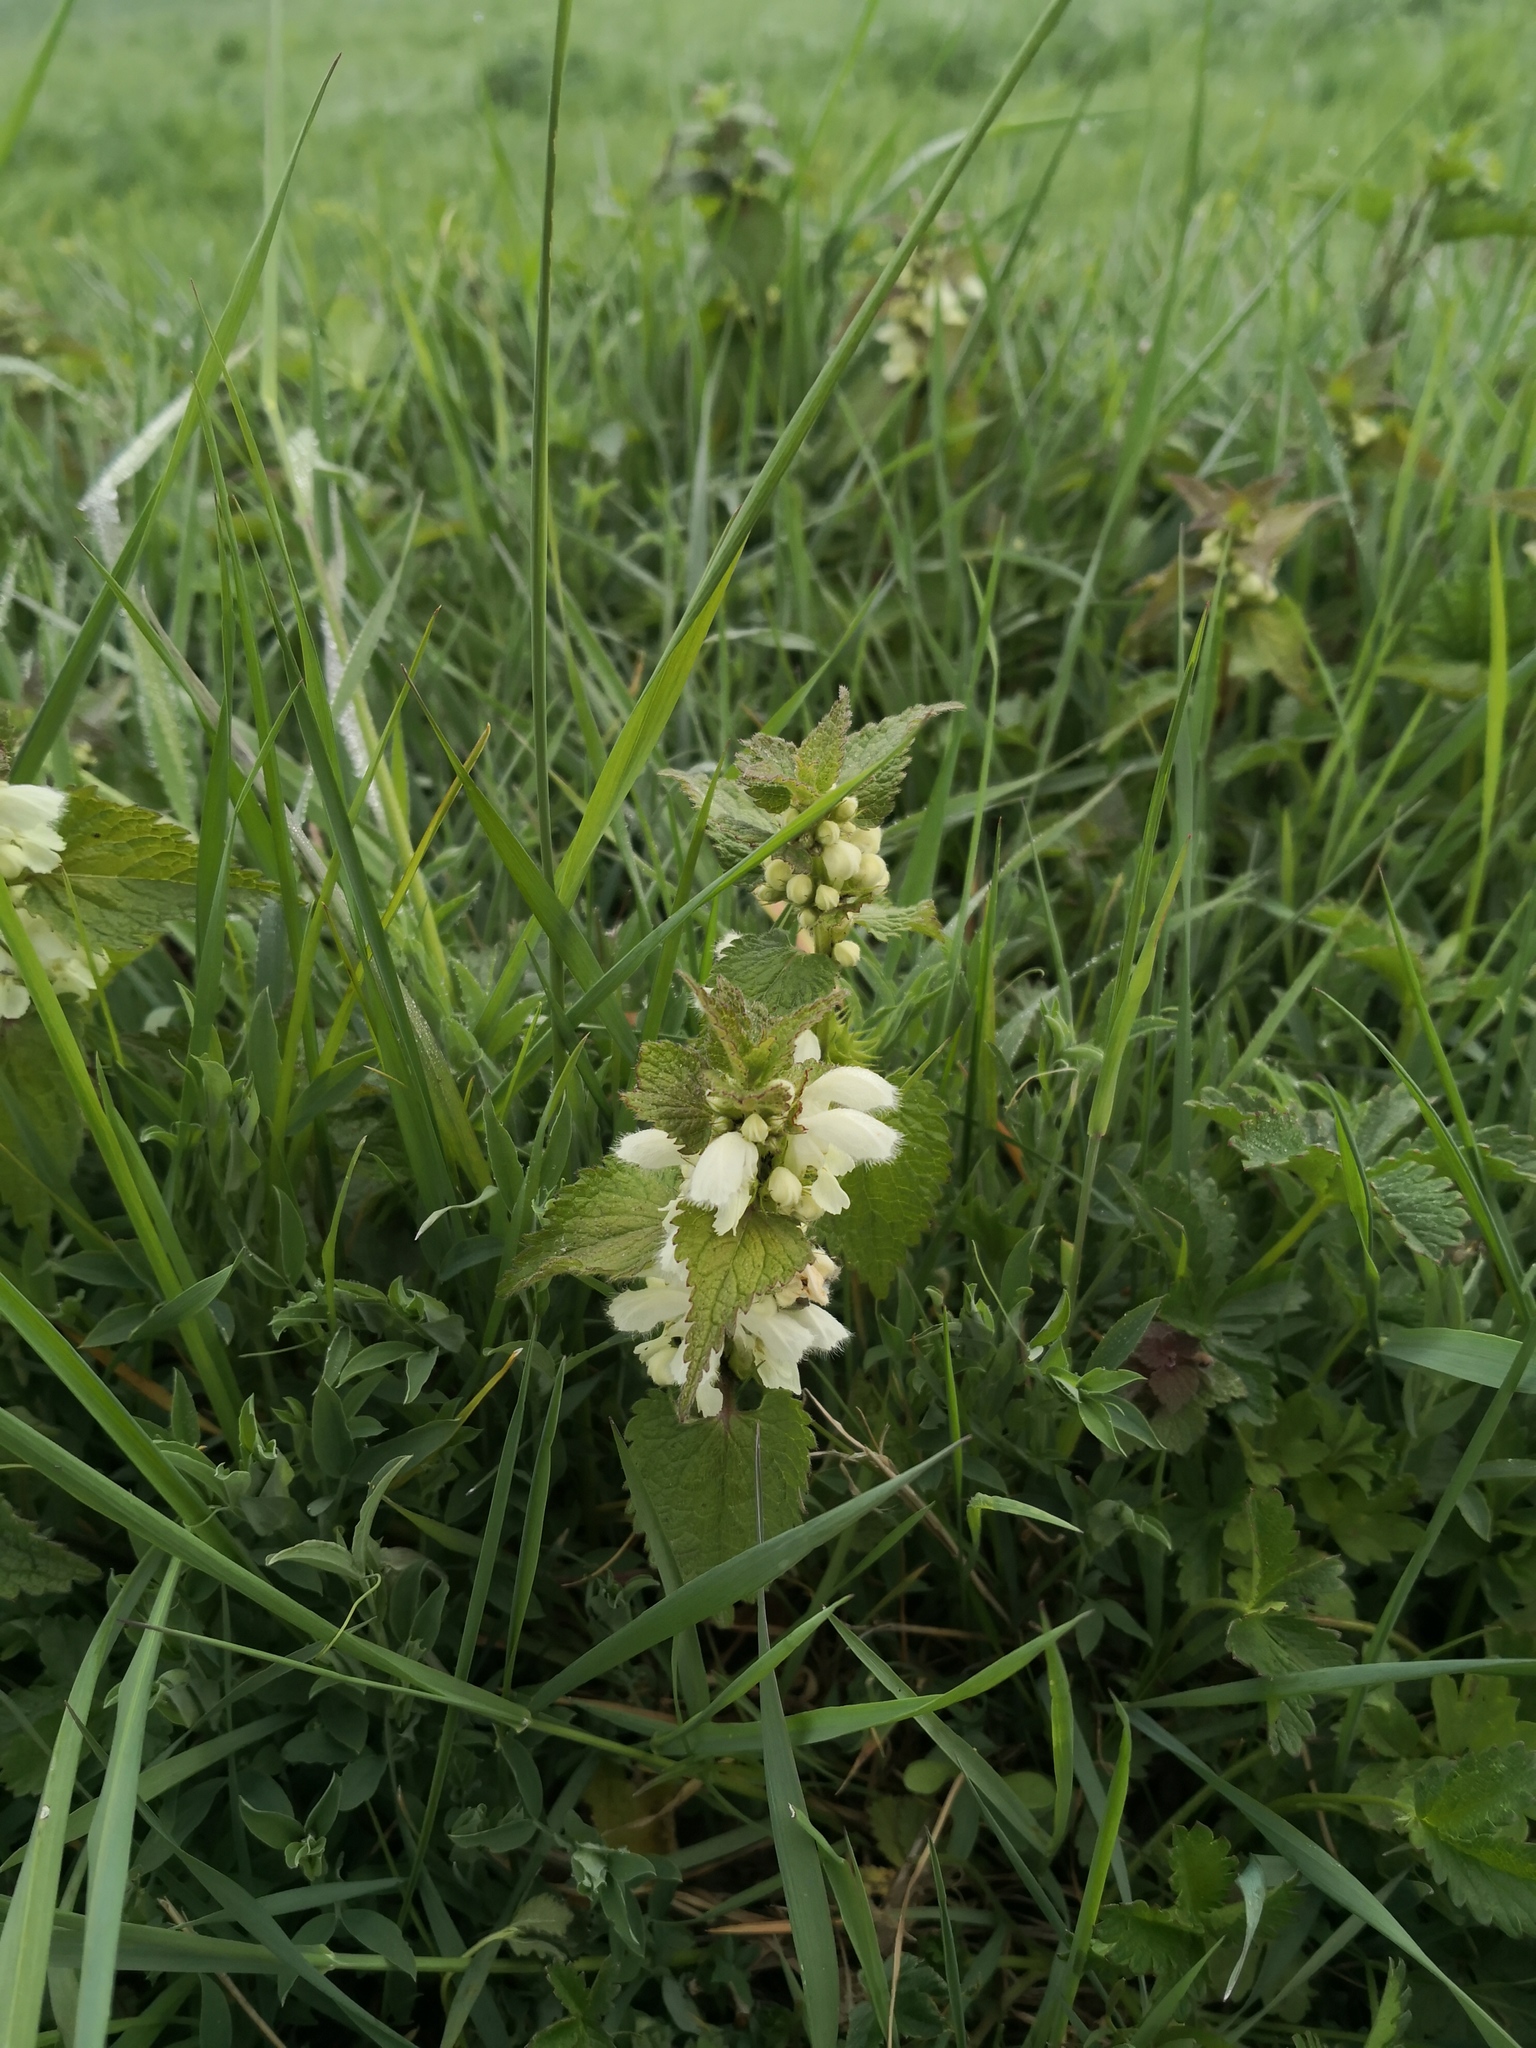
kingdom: Plantae
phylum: Tracheophyta
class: Magnoliopsida
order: Lamiales
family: Lamiaceae
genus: Lamium
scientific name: Lamium album
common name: White dead-nettle
